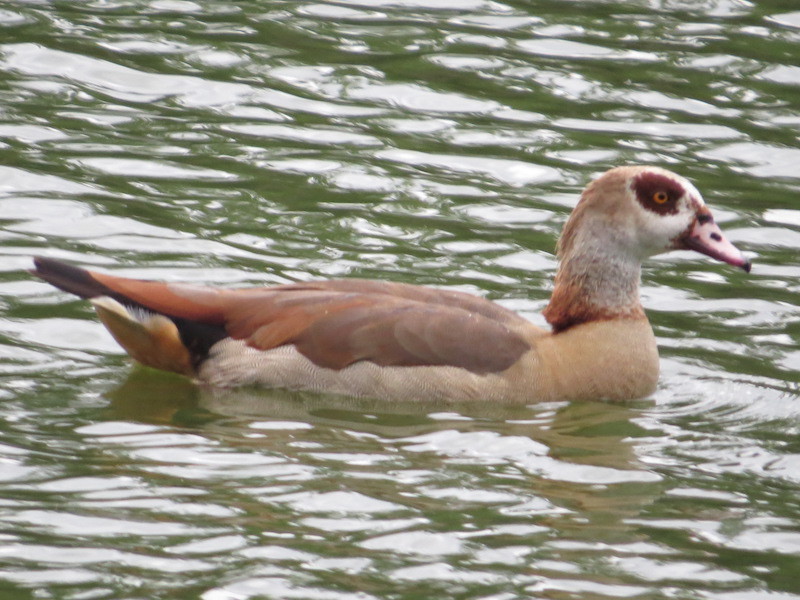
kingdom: Animalia
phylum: Chordata
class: Aves
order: Anseriformes
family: Anatidae
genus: Alopochen
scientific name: Alopochen aegyptiaca
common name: Egyptian goose
